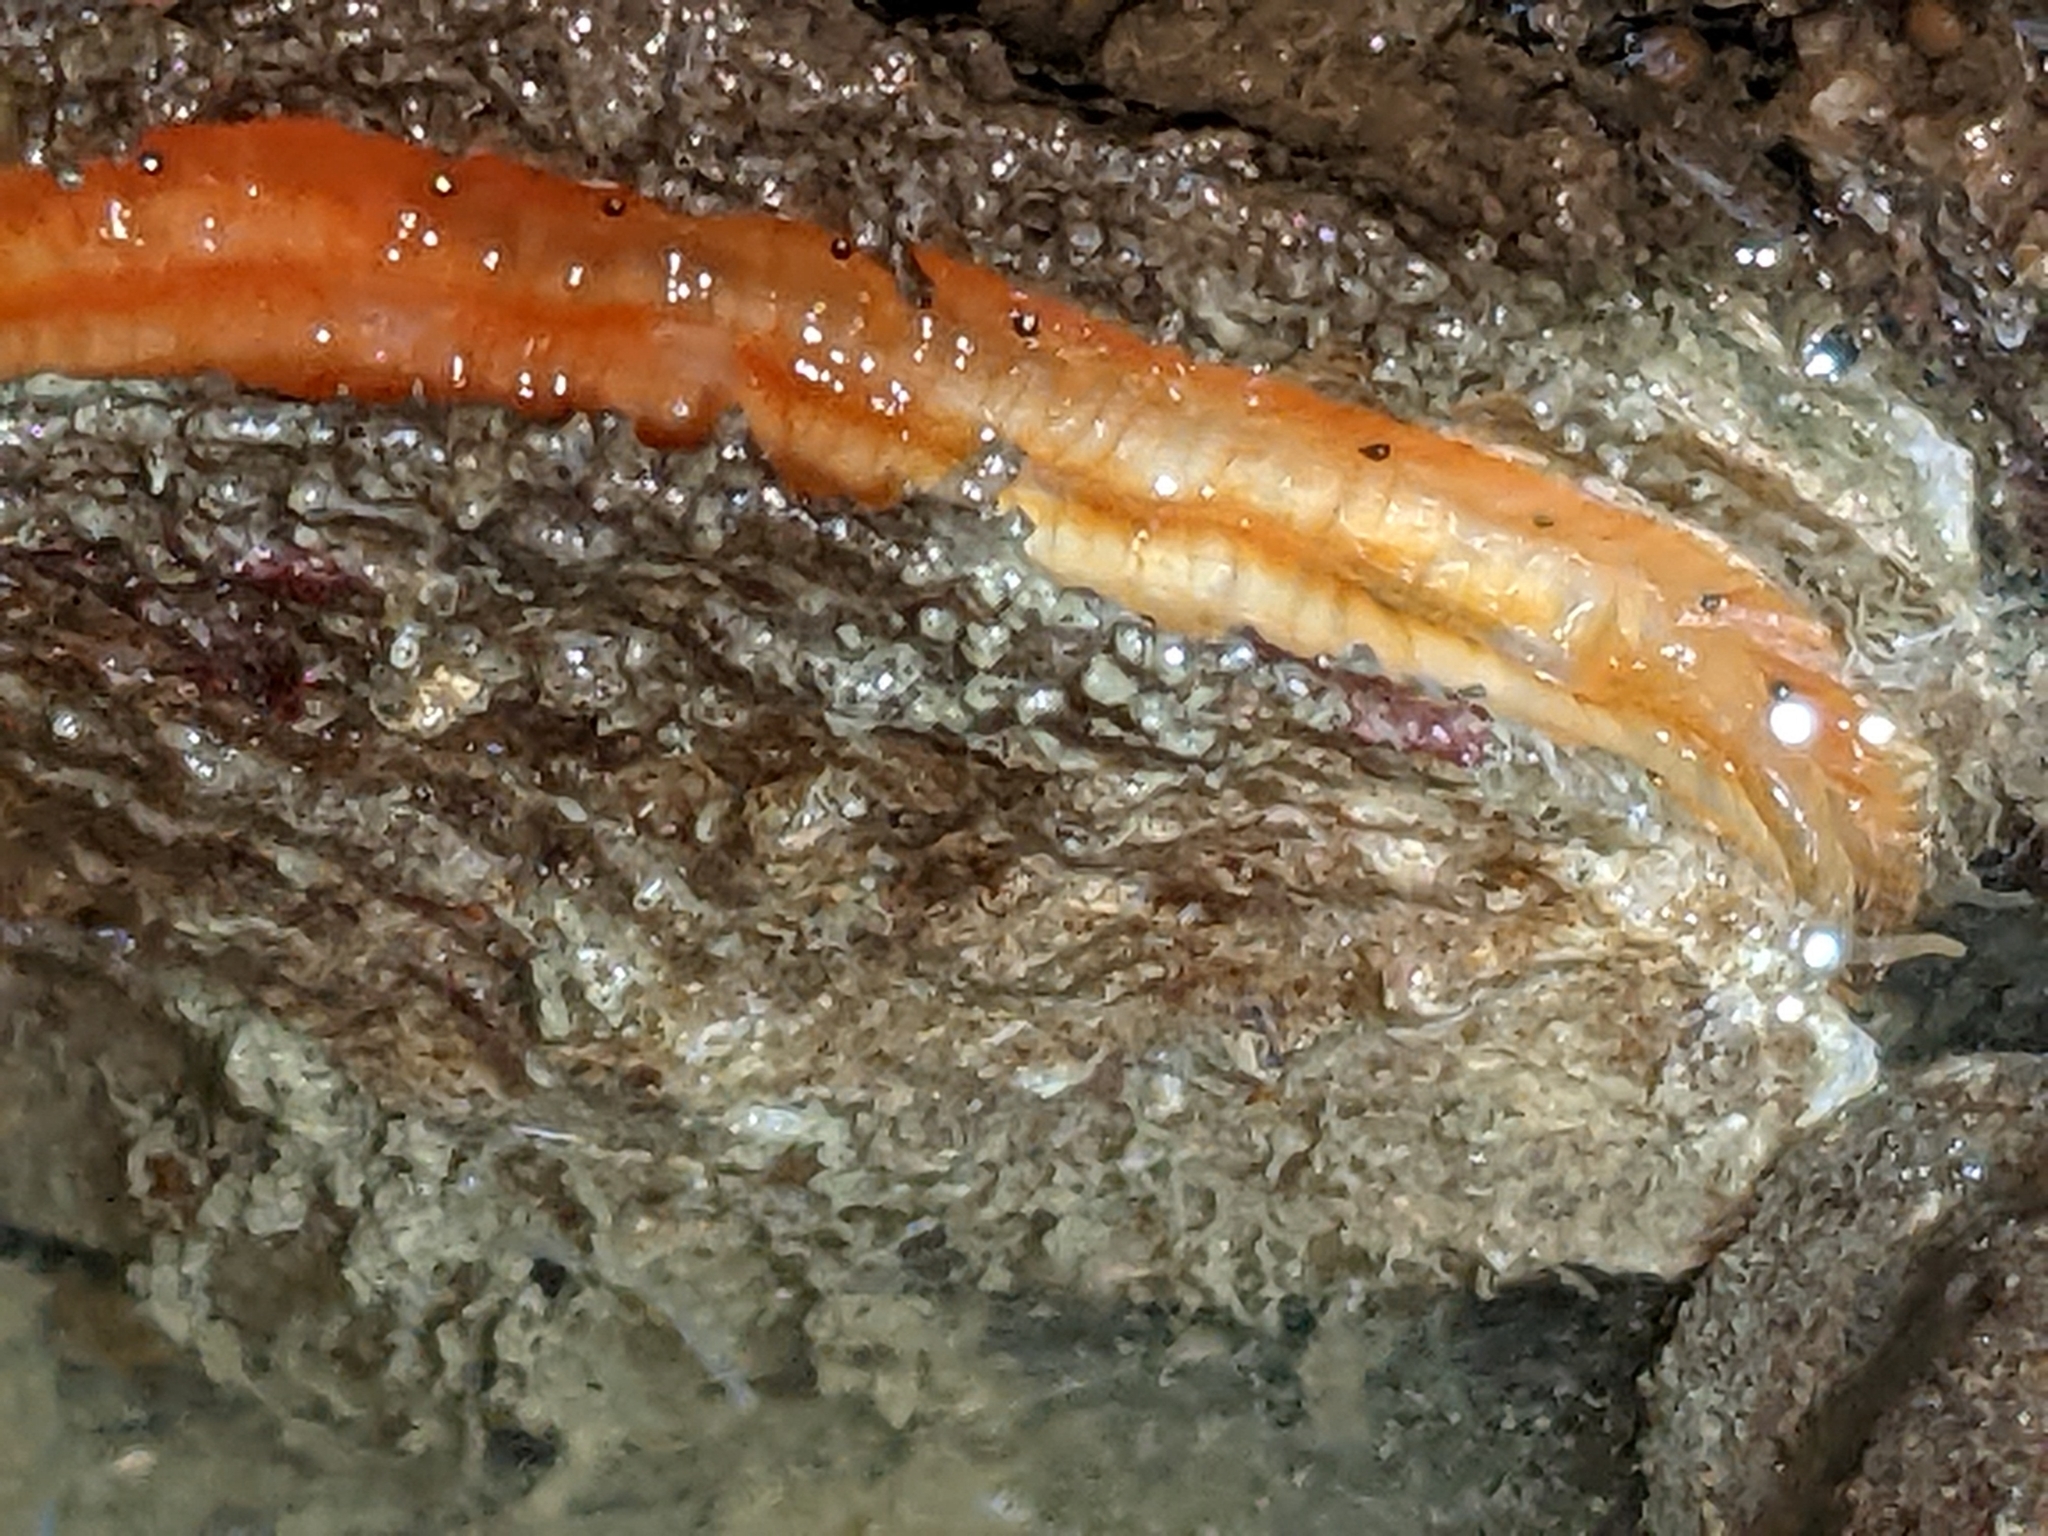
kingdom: Animalia
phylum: Mollusca
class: Bivalvia
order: Pectinida
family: Pectinidae
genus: Crassadoma
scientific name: Crassadoma gigantea
